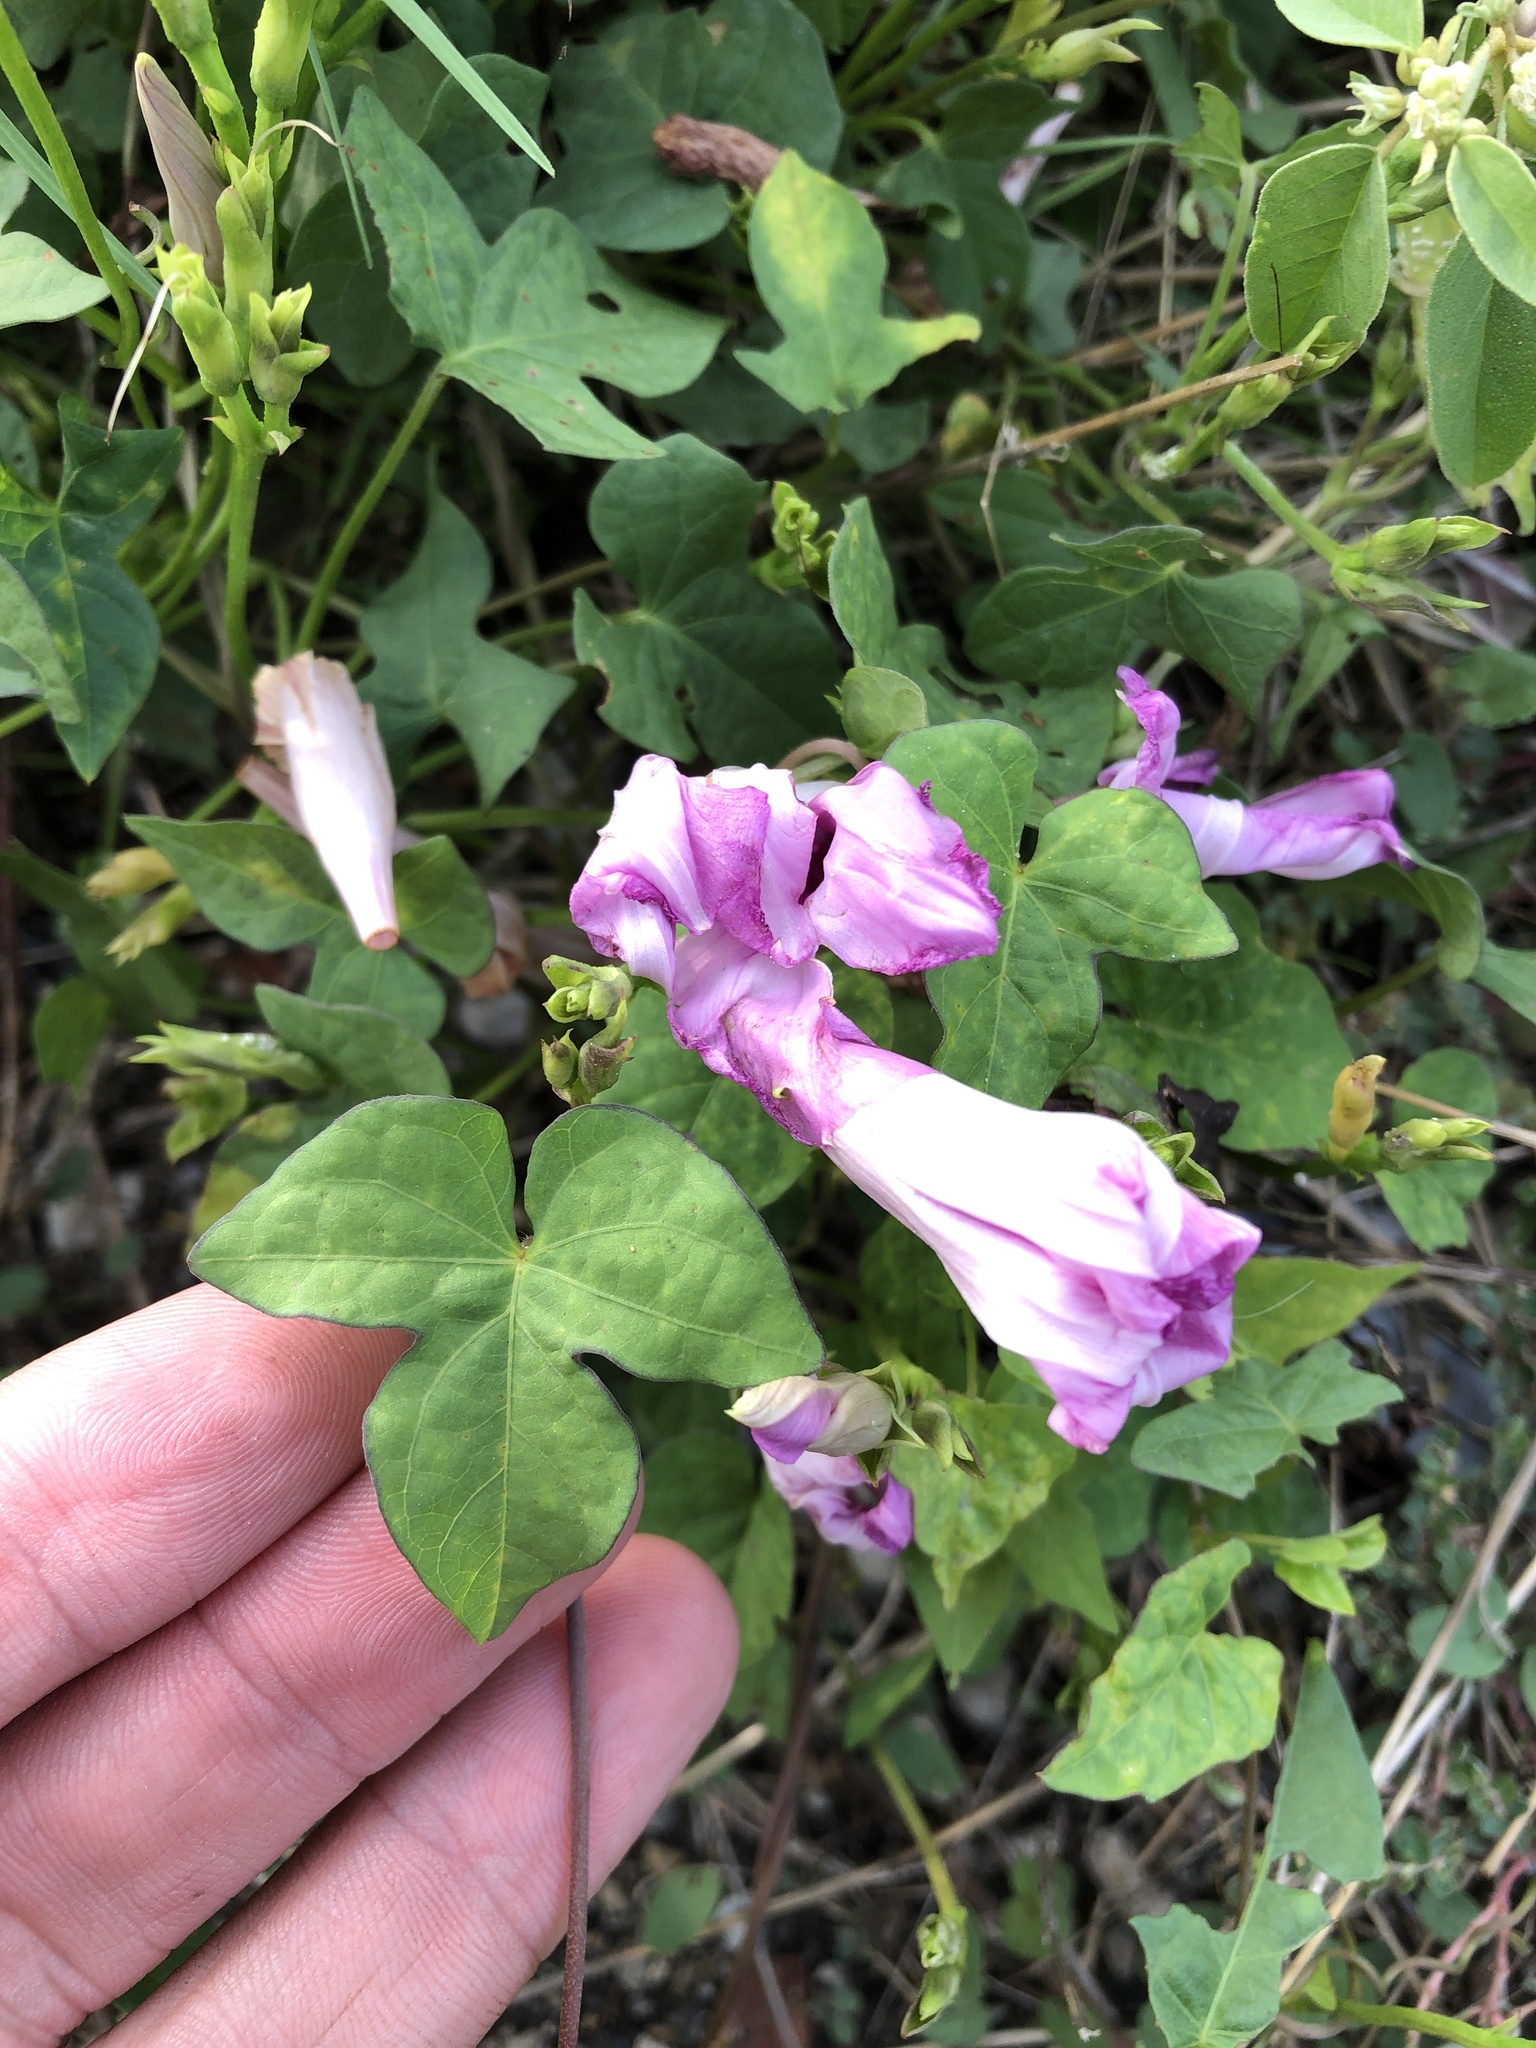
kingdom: Plantae
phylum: Tracheophyta
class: Magnoliopsida
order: Solanales
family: Convolvulaceae
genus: Ipomoea
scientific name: Ipomoea cordatotriloba
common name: Cotton morning glory
